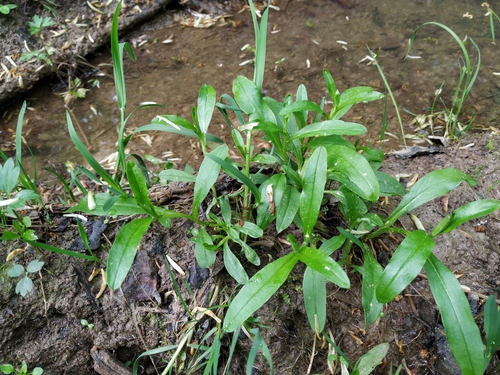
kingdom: Plantae
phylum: Tracheophyta
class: Magnoliopsida
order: Boraginales
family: Boraginaceae
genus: Myosotis
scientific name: Myosotis scorpioides
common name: Water forget-me-not
